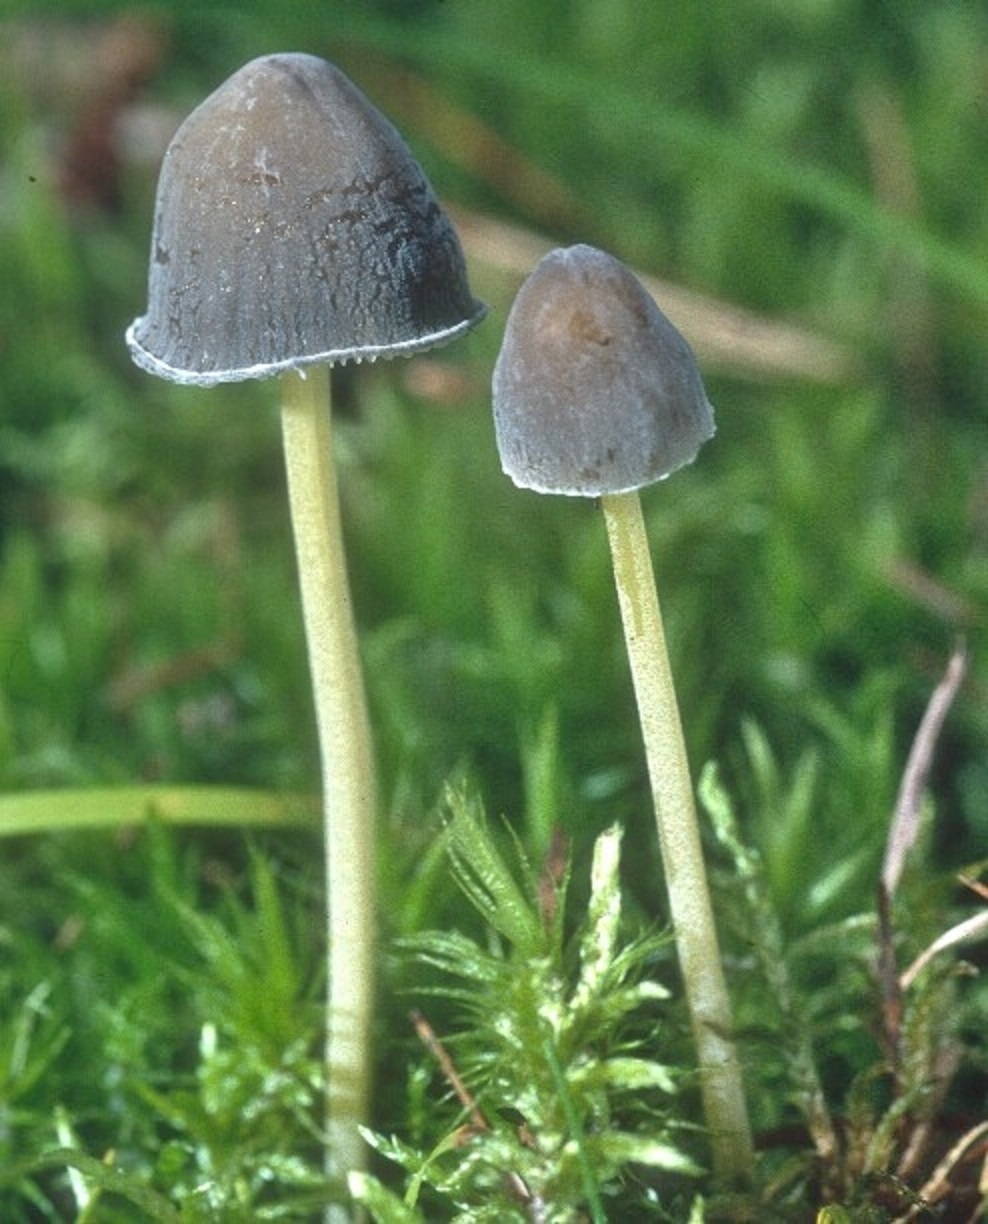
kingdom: Fungi
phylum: Basidiomycota
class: Agaricomycetes
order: Agaricales
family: Mycenaceae
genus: Mycena
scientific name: Mycena griseoviridis
